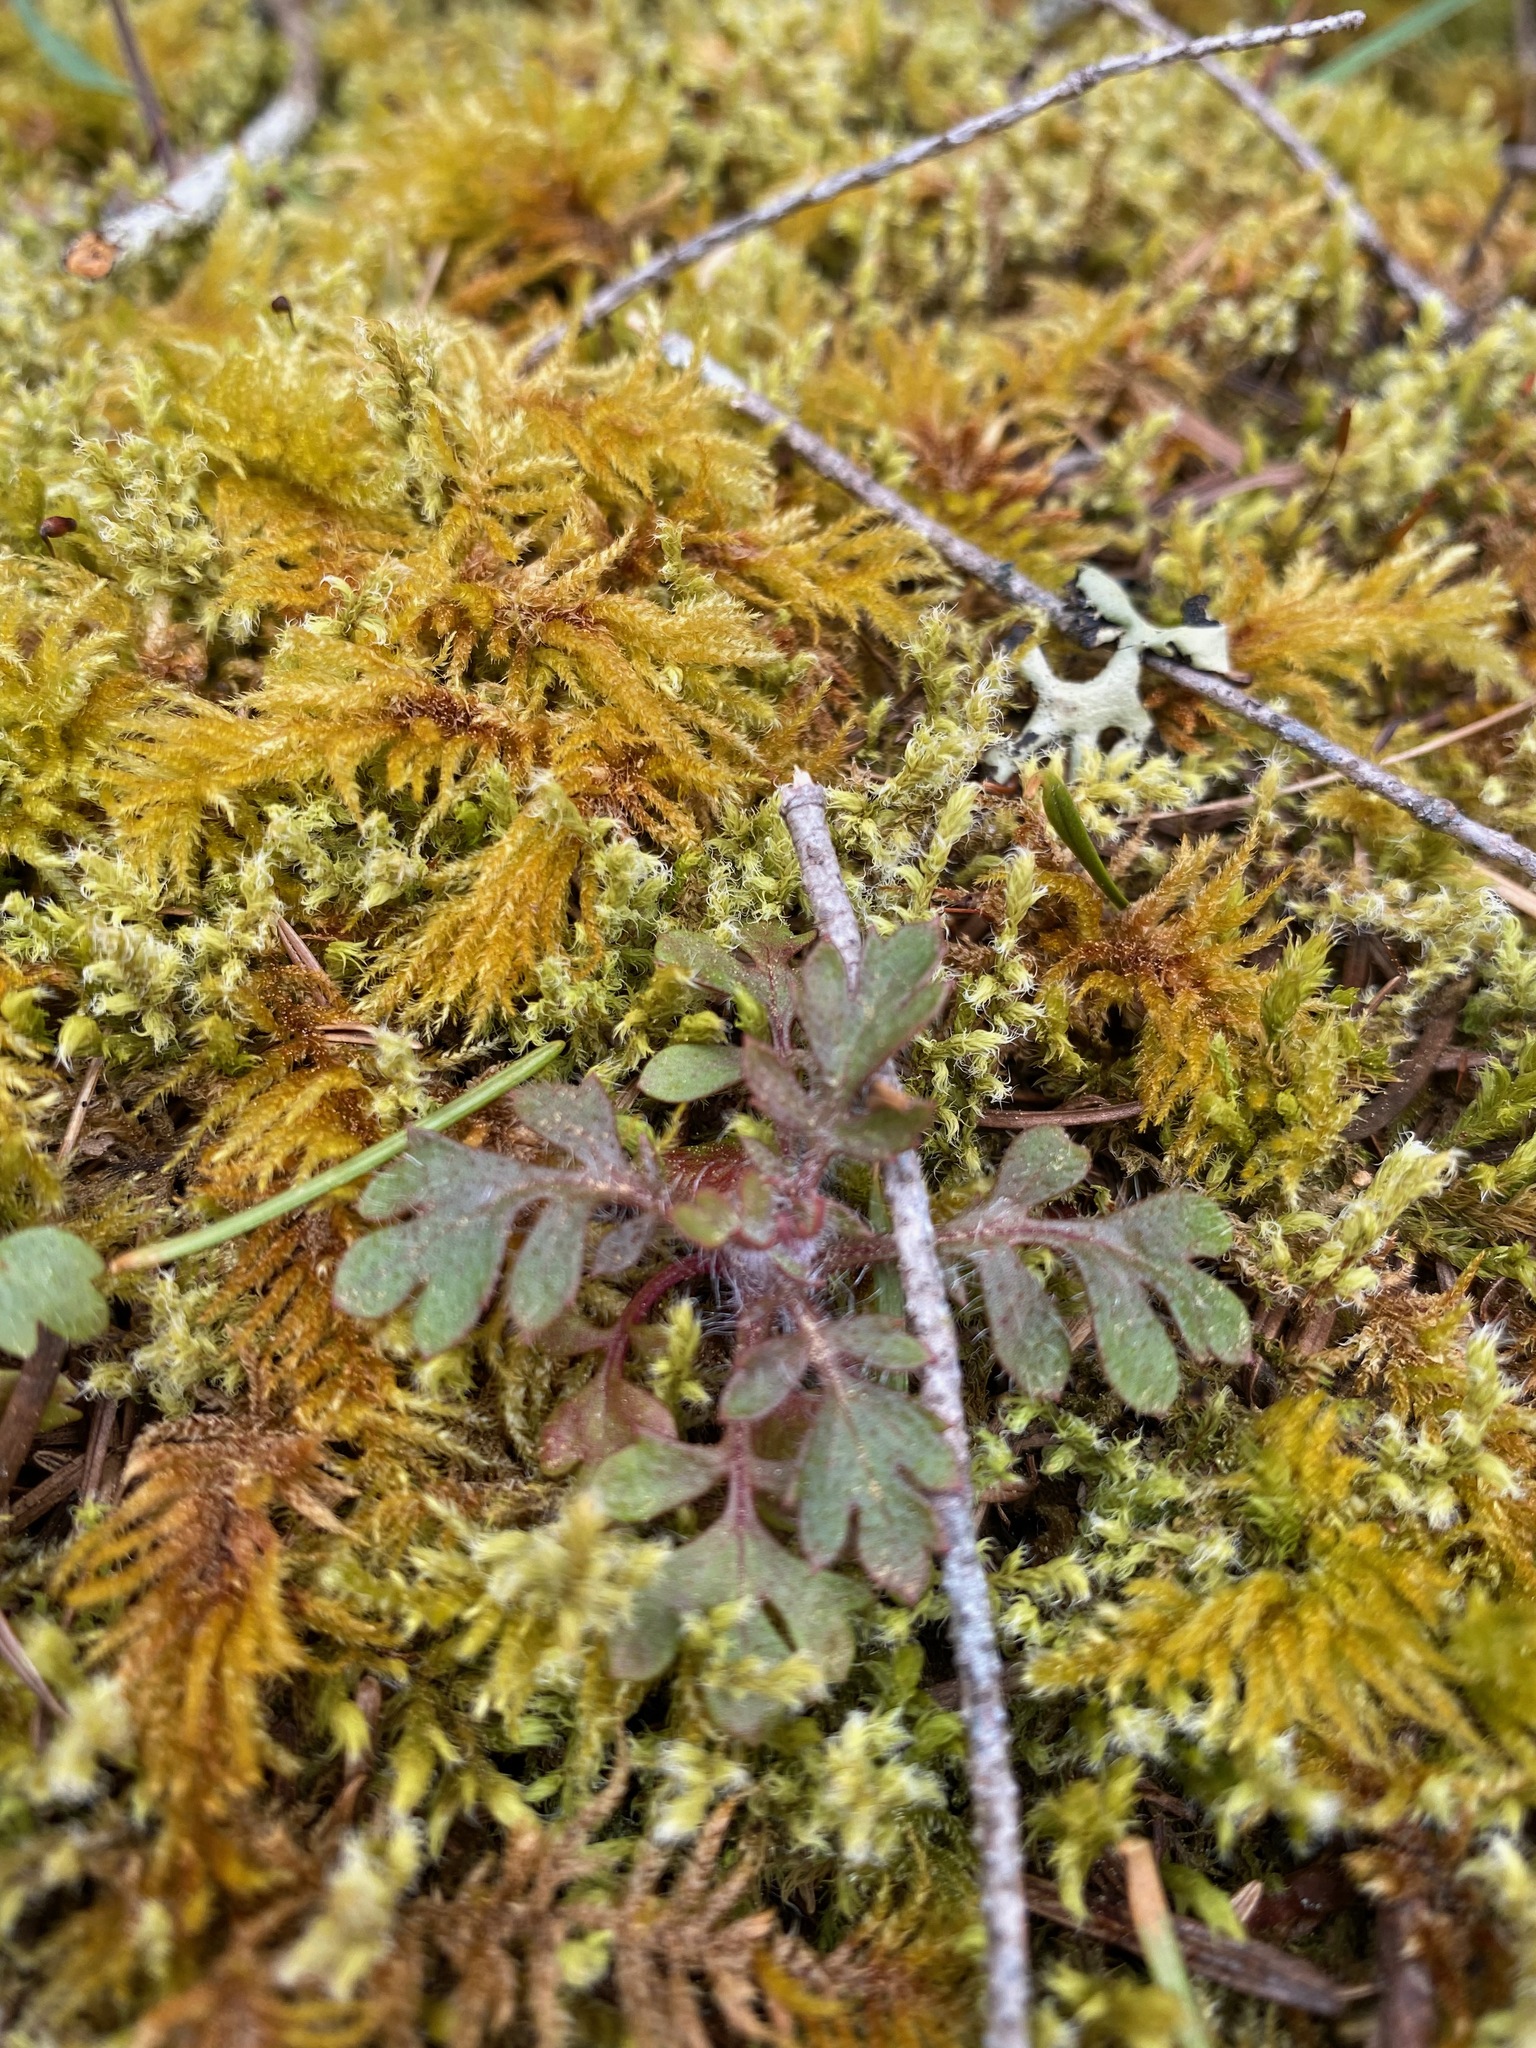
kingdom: Plantae
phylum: Tracheophyta
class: Magnoliopsida
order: Ericales
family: Polemoniaceae
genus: Collomia
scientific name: Collomia heterophylla
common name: Variable-leaved collomia
